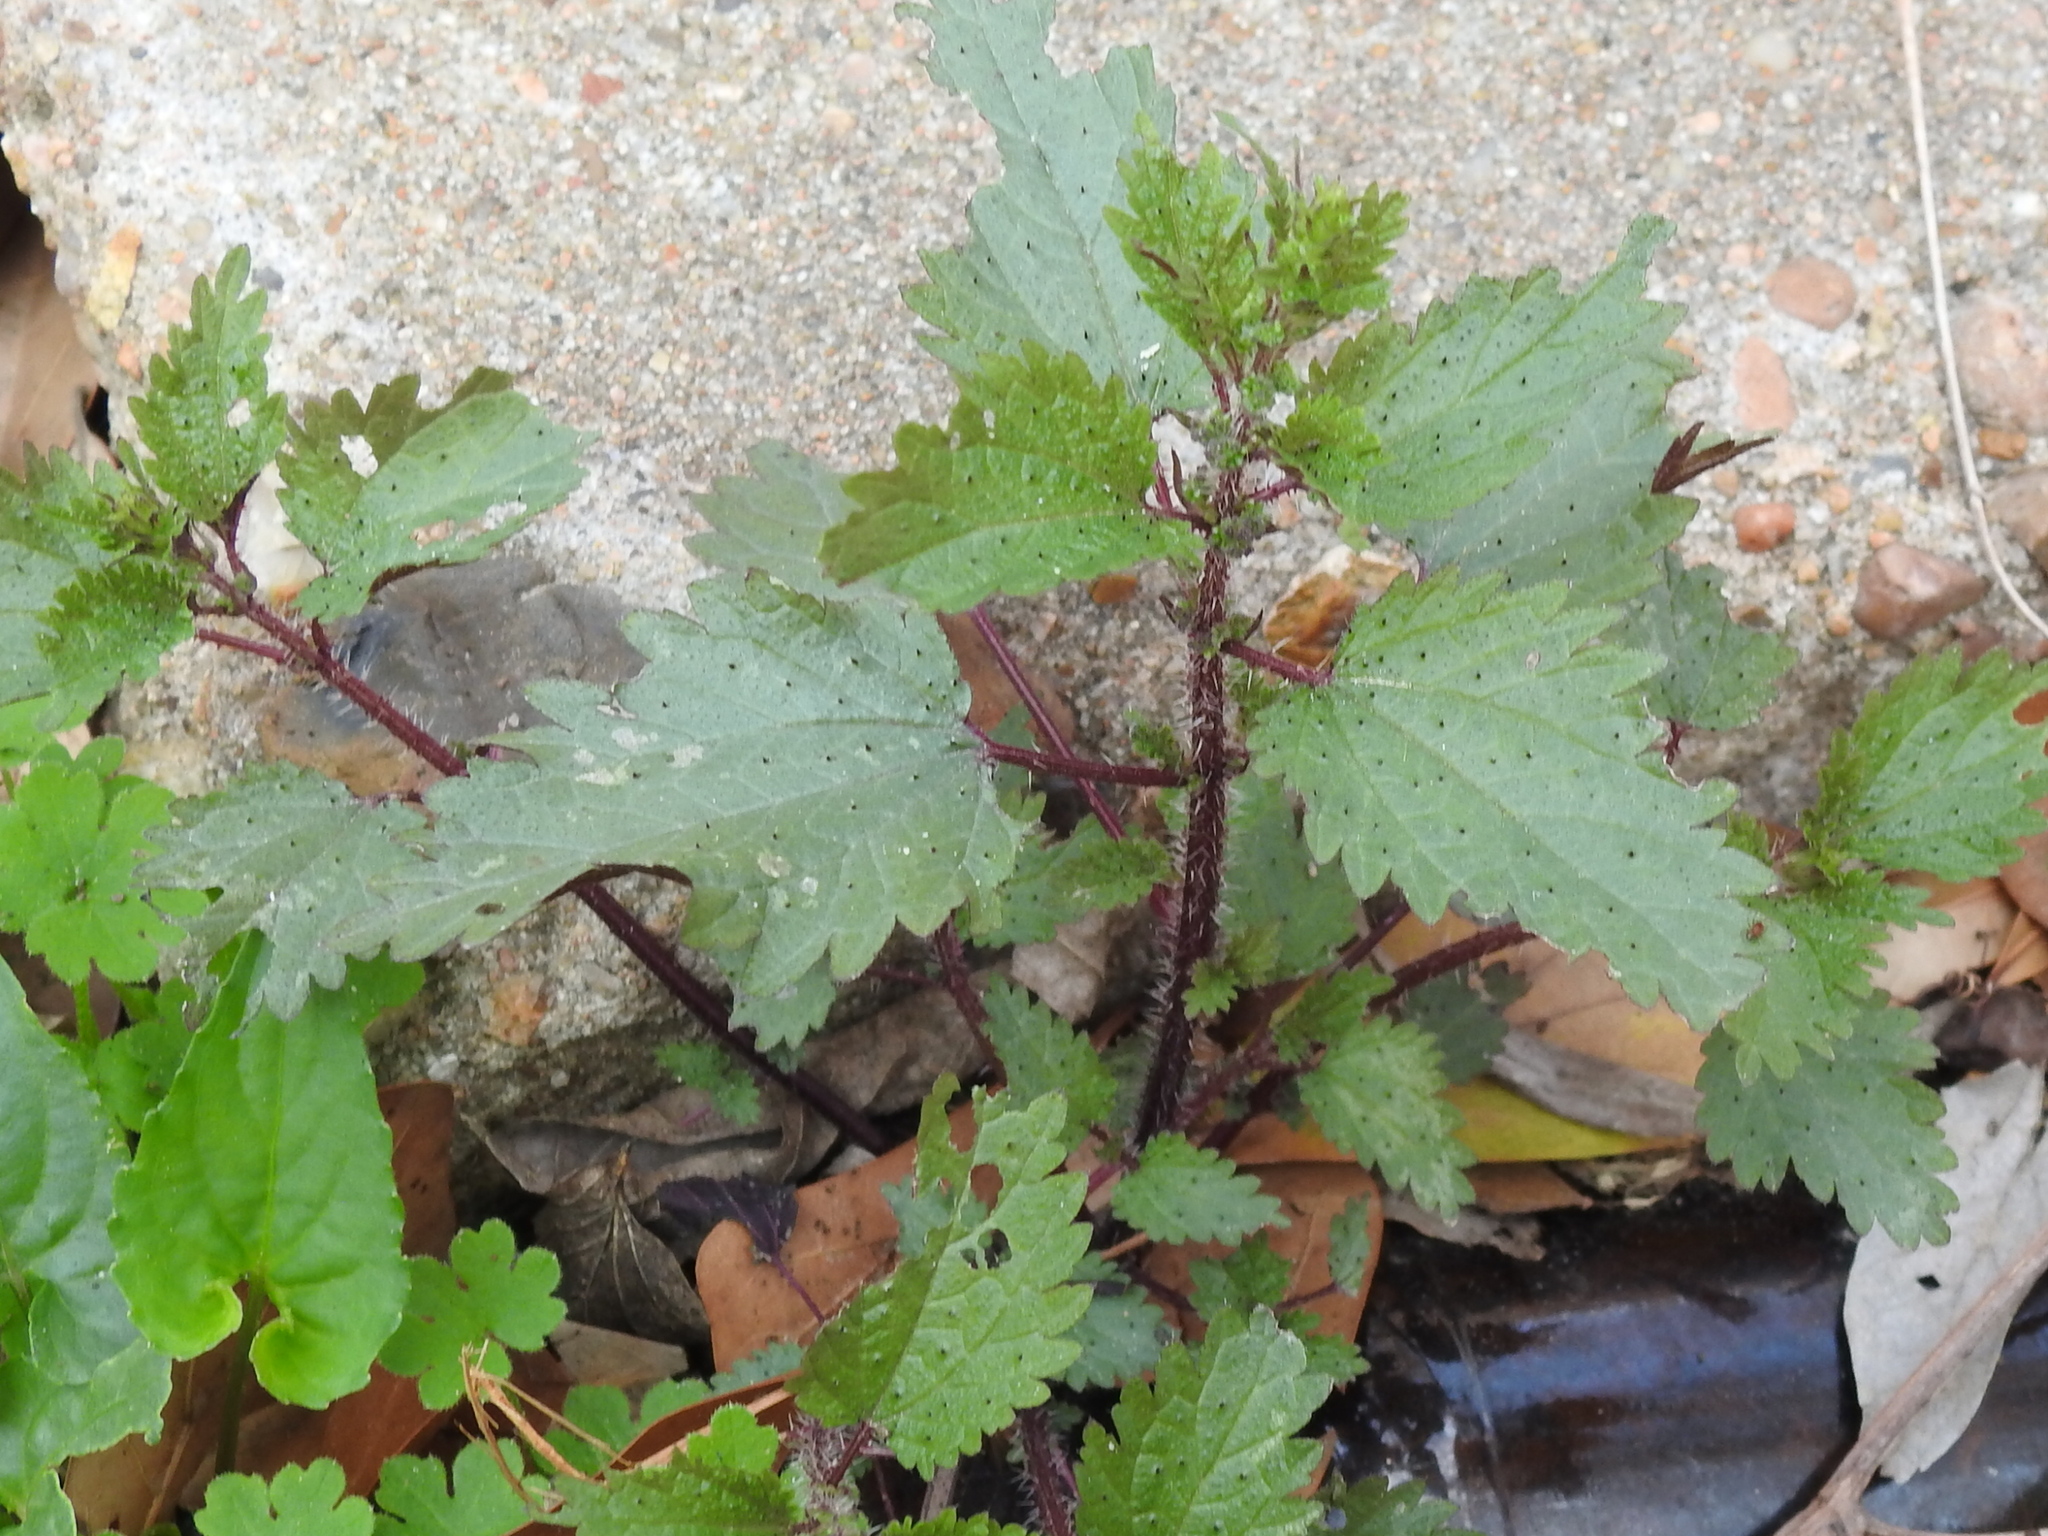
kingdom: Plantae
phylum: Tracheophyta
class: Magnoliopsida
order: Rosales
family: Urticaceae
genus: Urtica
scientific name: Urtica chamaedryoides
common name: Heart-leaf nettle
